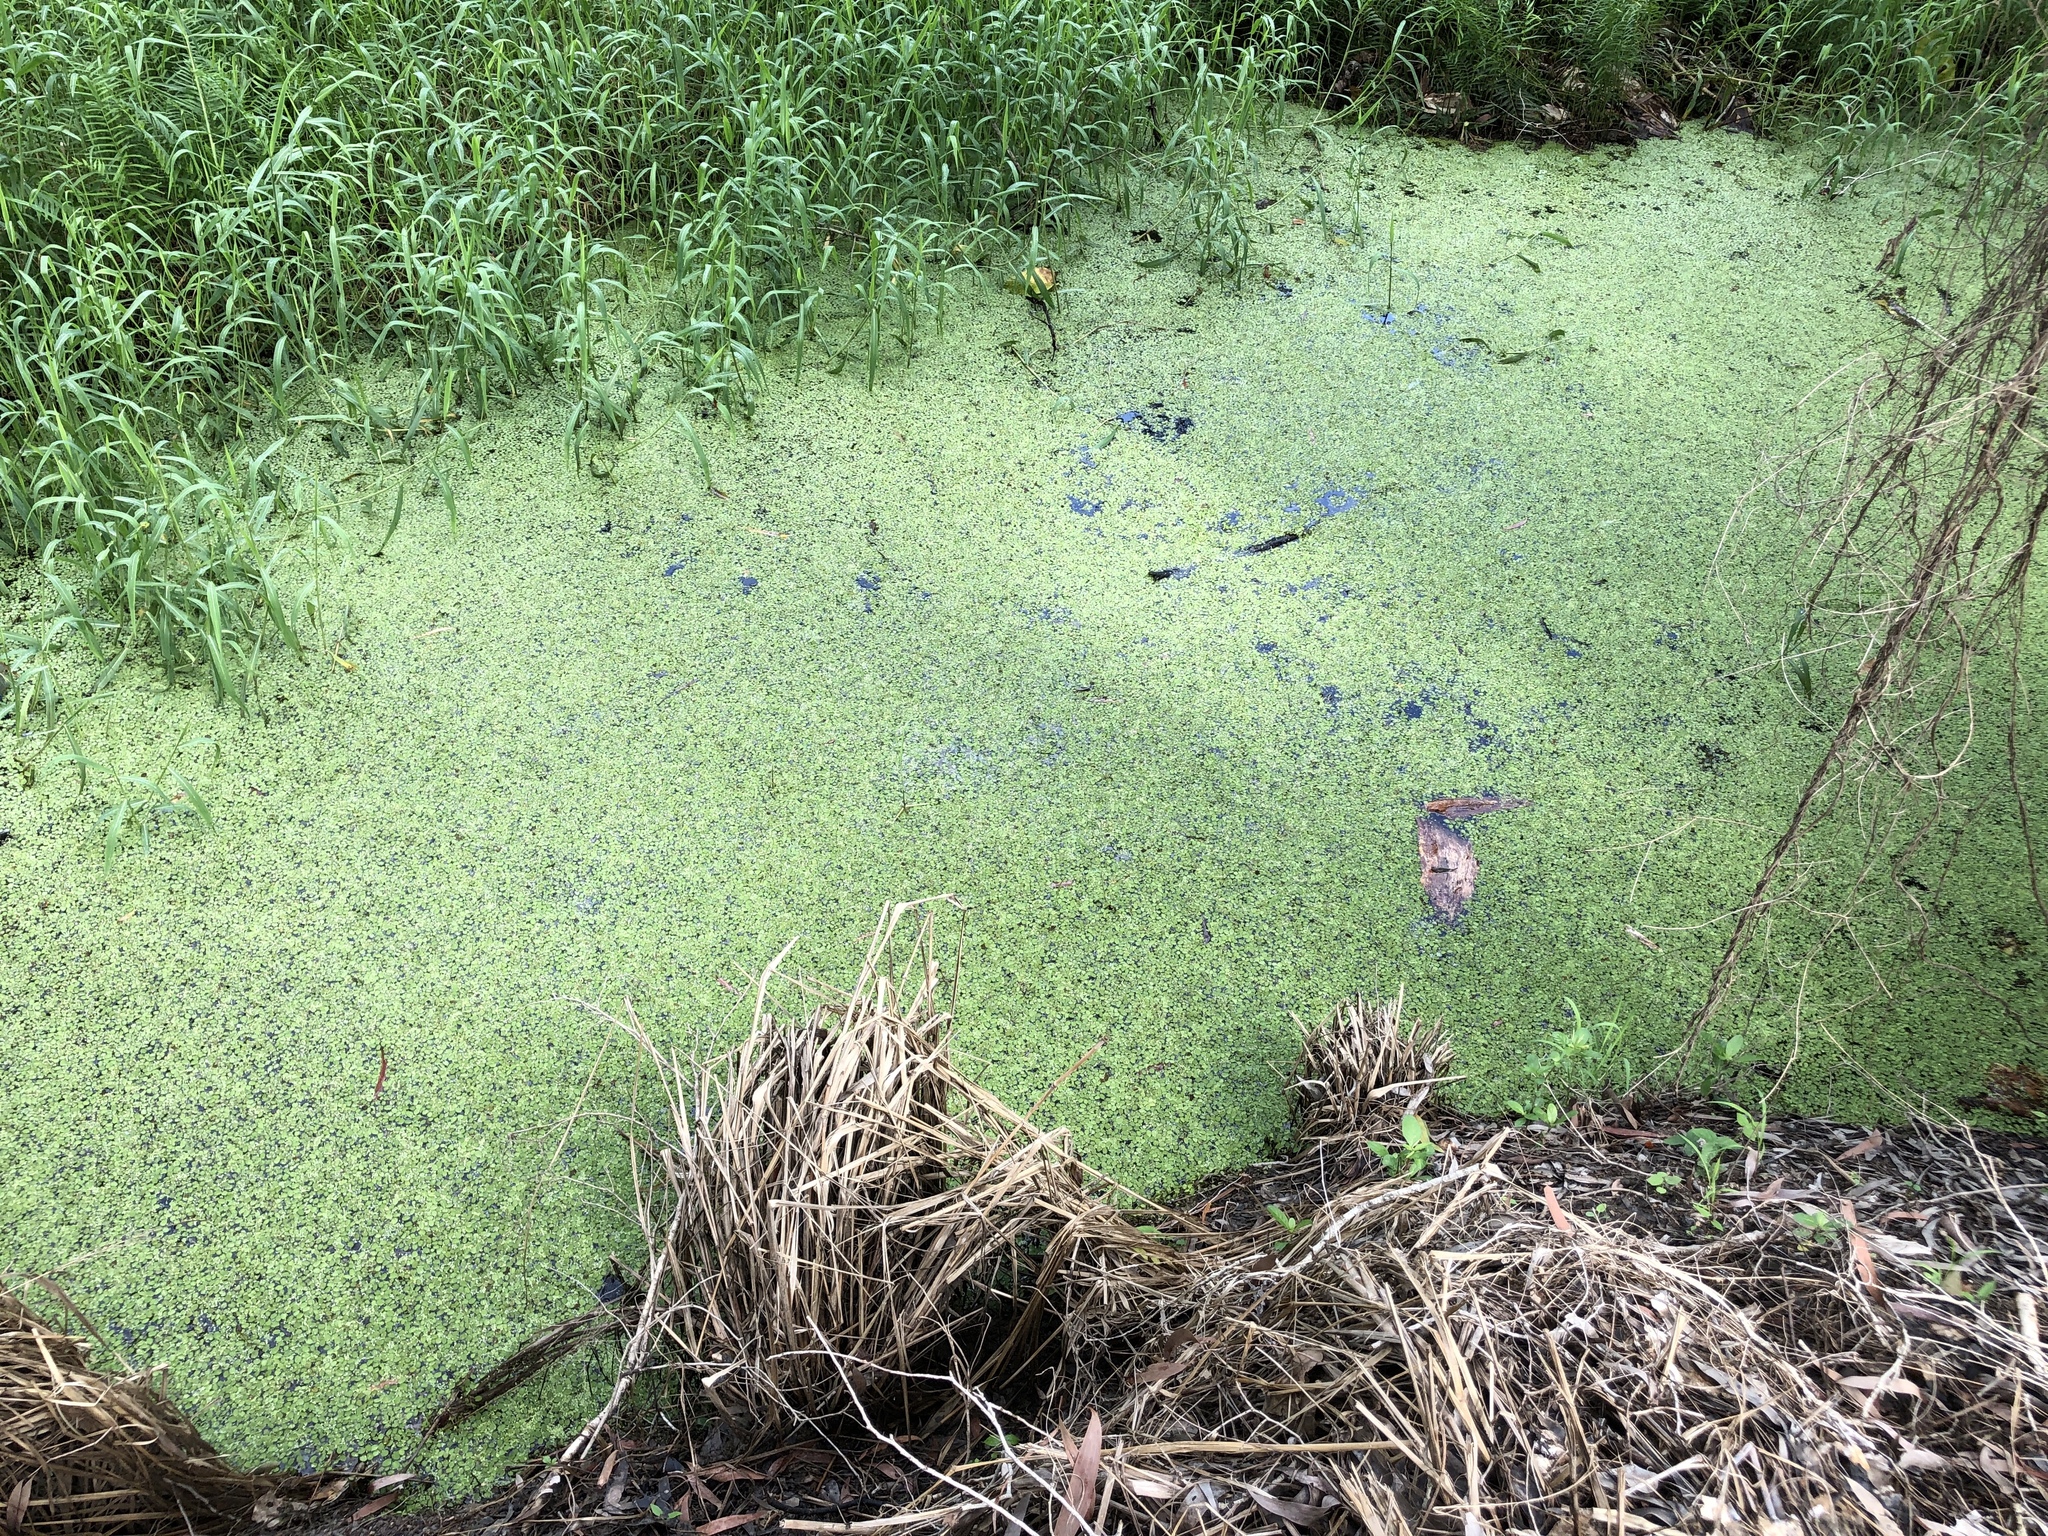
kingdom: Plantae
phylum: Tracheophyta
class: Polypodiopsida
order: Salviniales
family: Salviniaceae
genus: Salvinia
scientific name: Salvinia molesta
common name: Kariba weed
